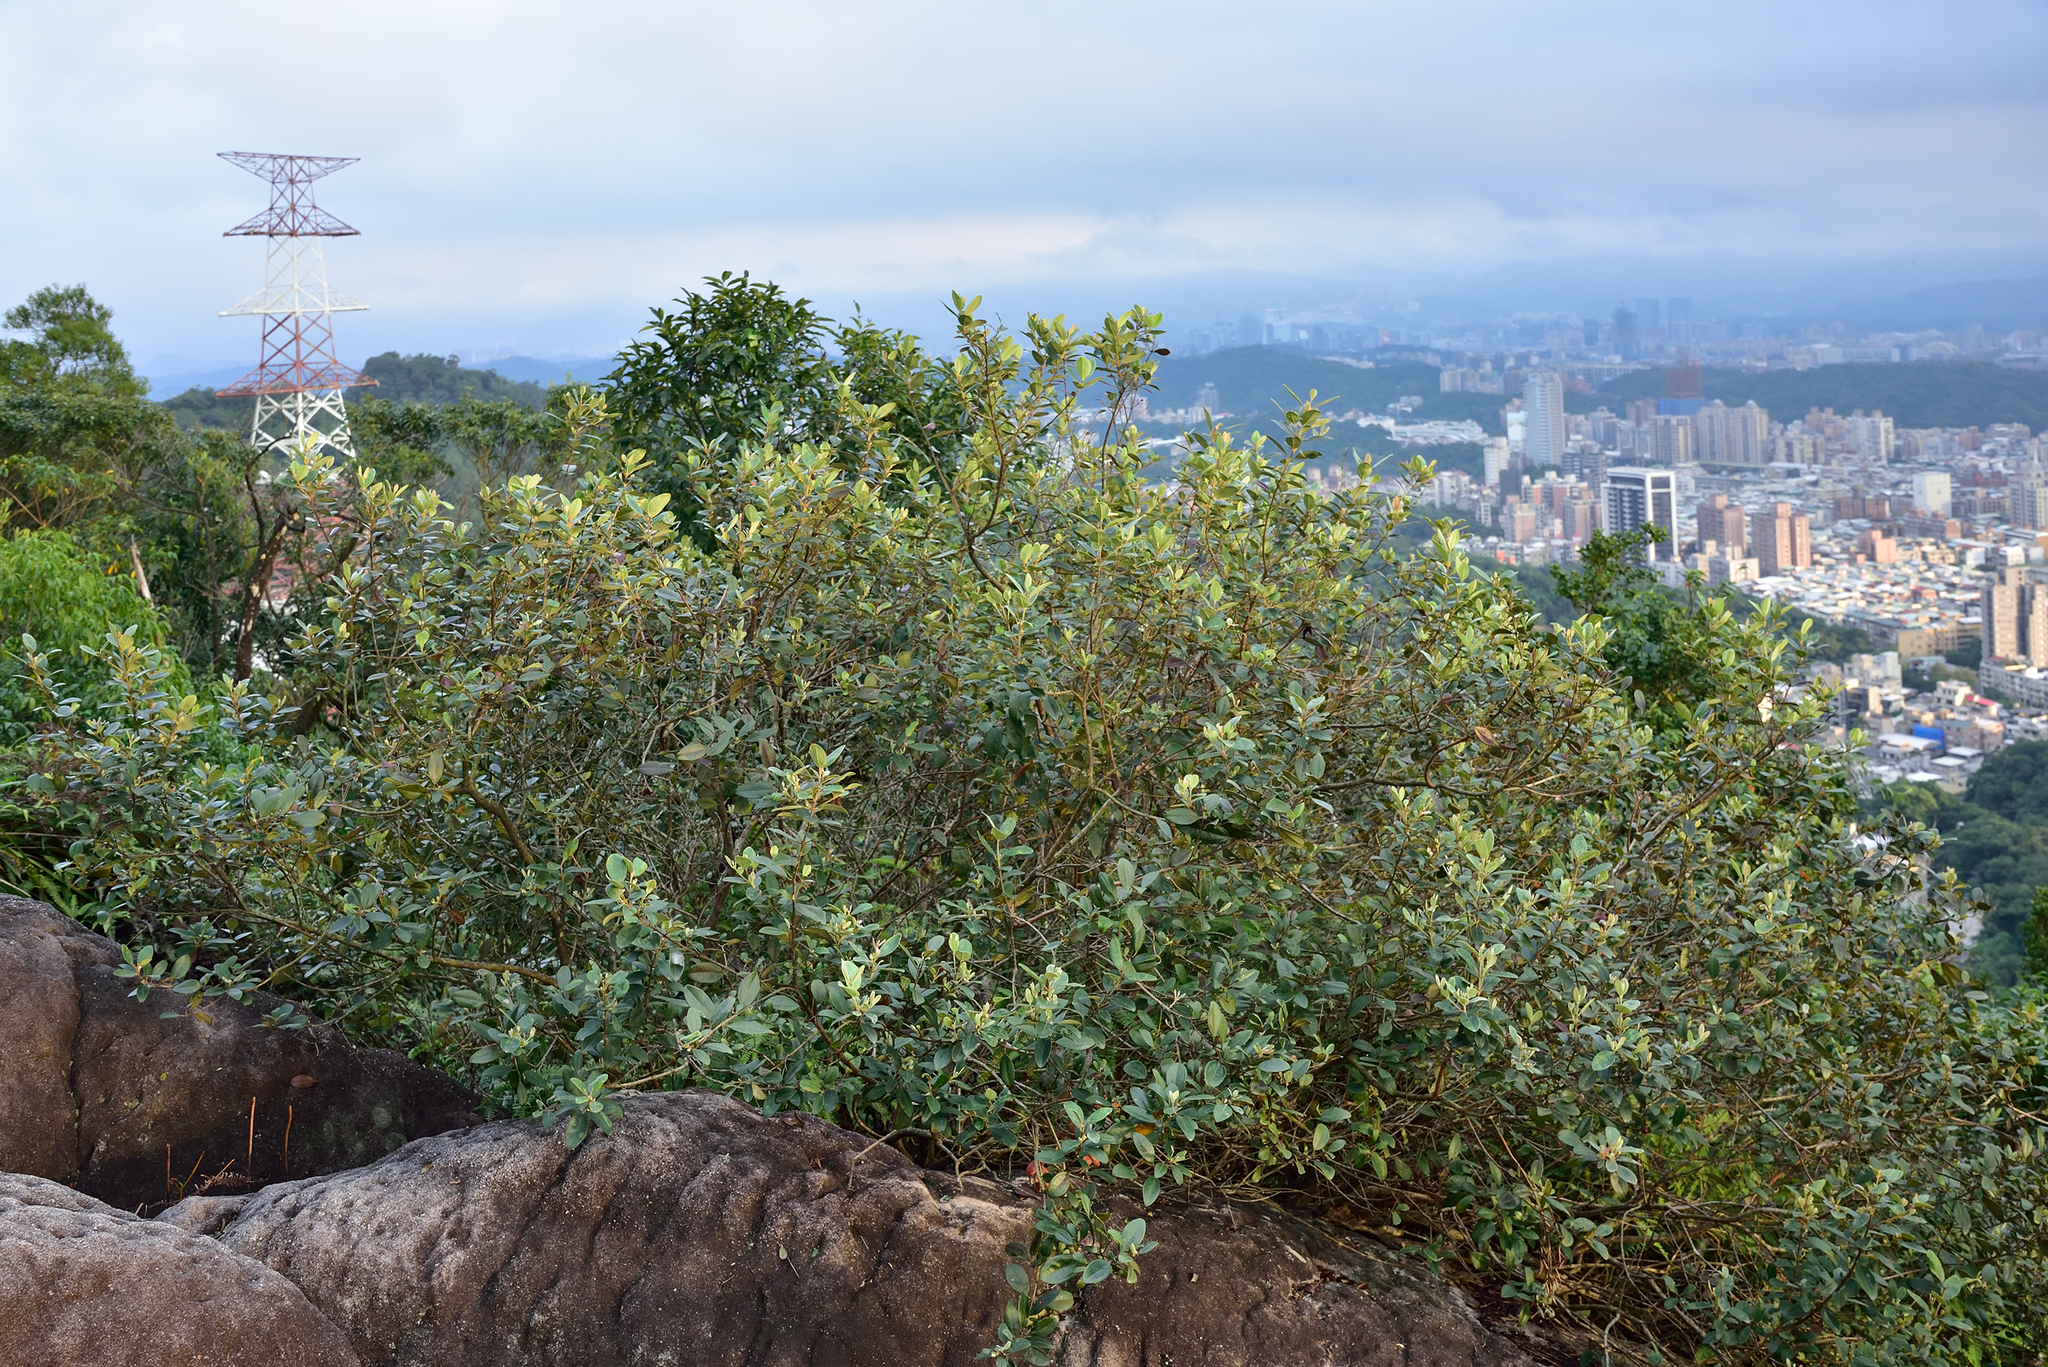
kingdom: Plantae
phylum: Tracheophyta
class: Magnoliopsida
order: Myrtales
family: Myrtaceae
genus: Rhodomyrtus
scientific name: Rhodomyrtus tomentosa
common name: Rose myrtle
